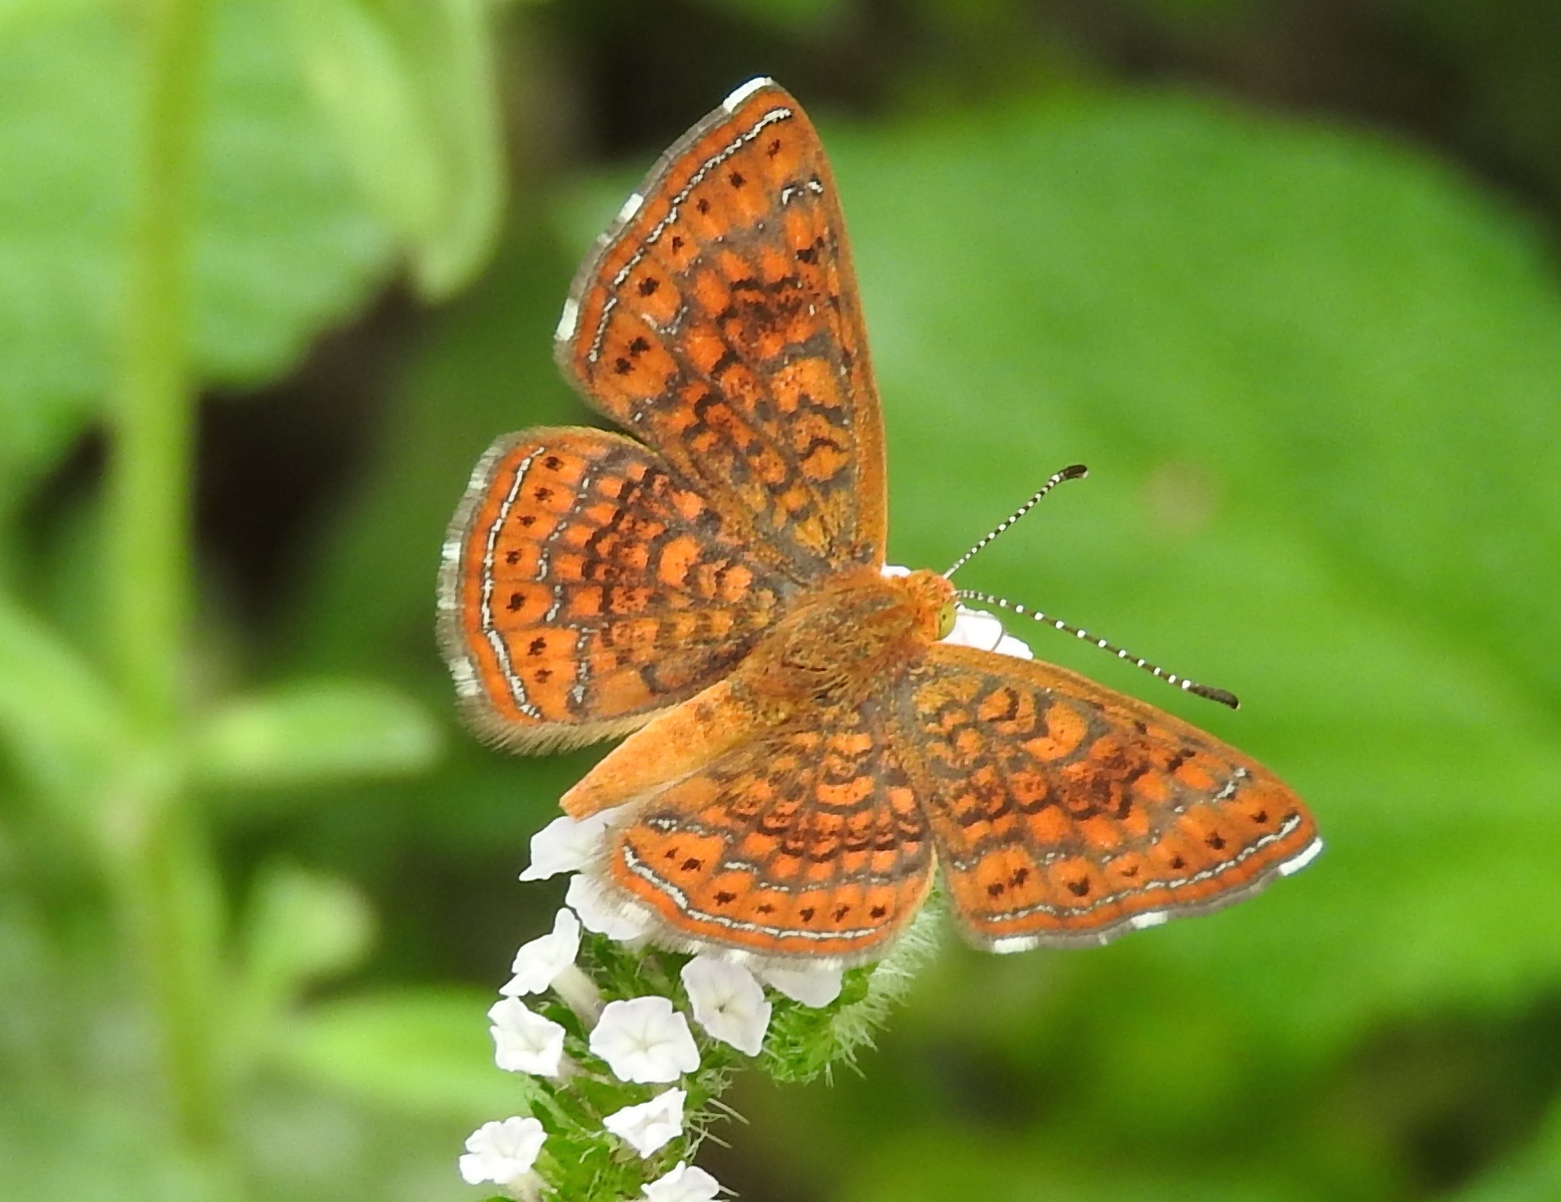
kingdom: Animalia
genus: Calephelis
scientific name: Calephelis
